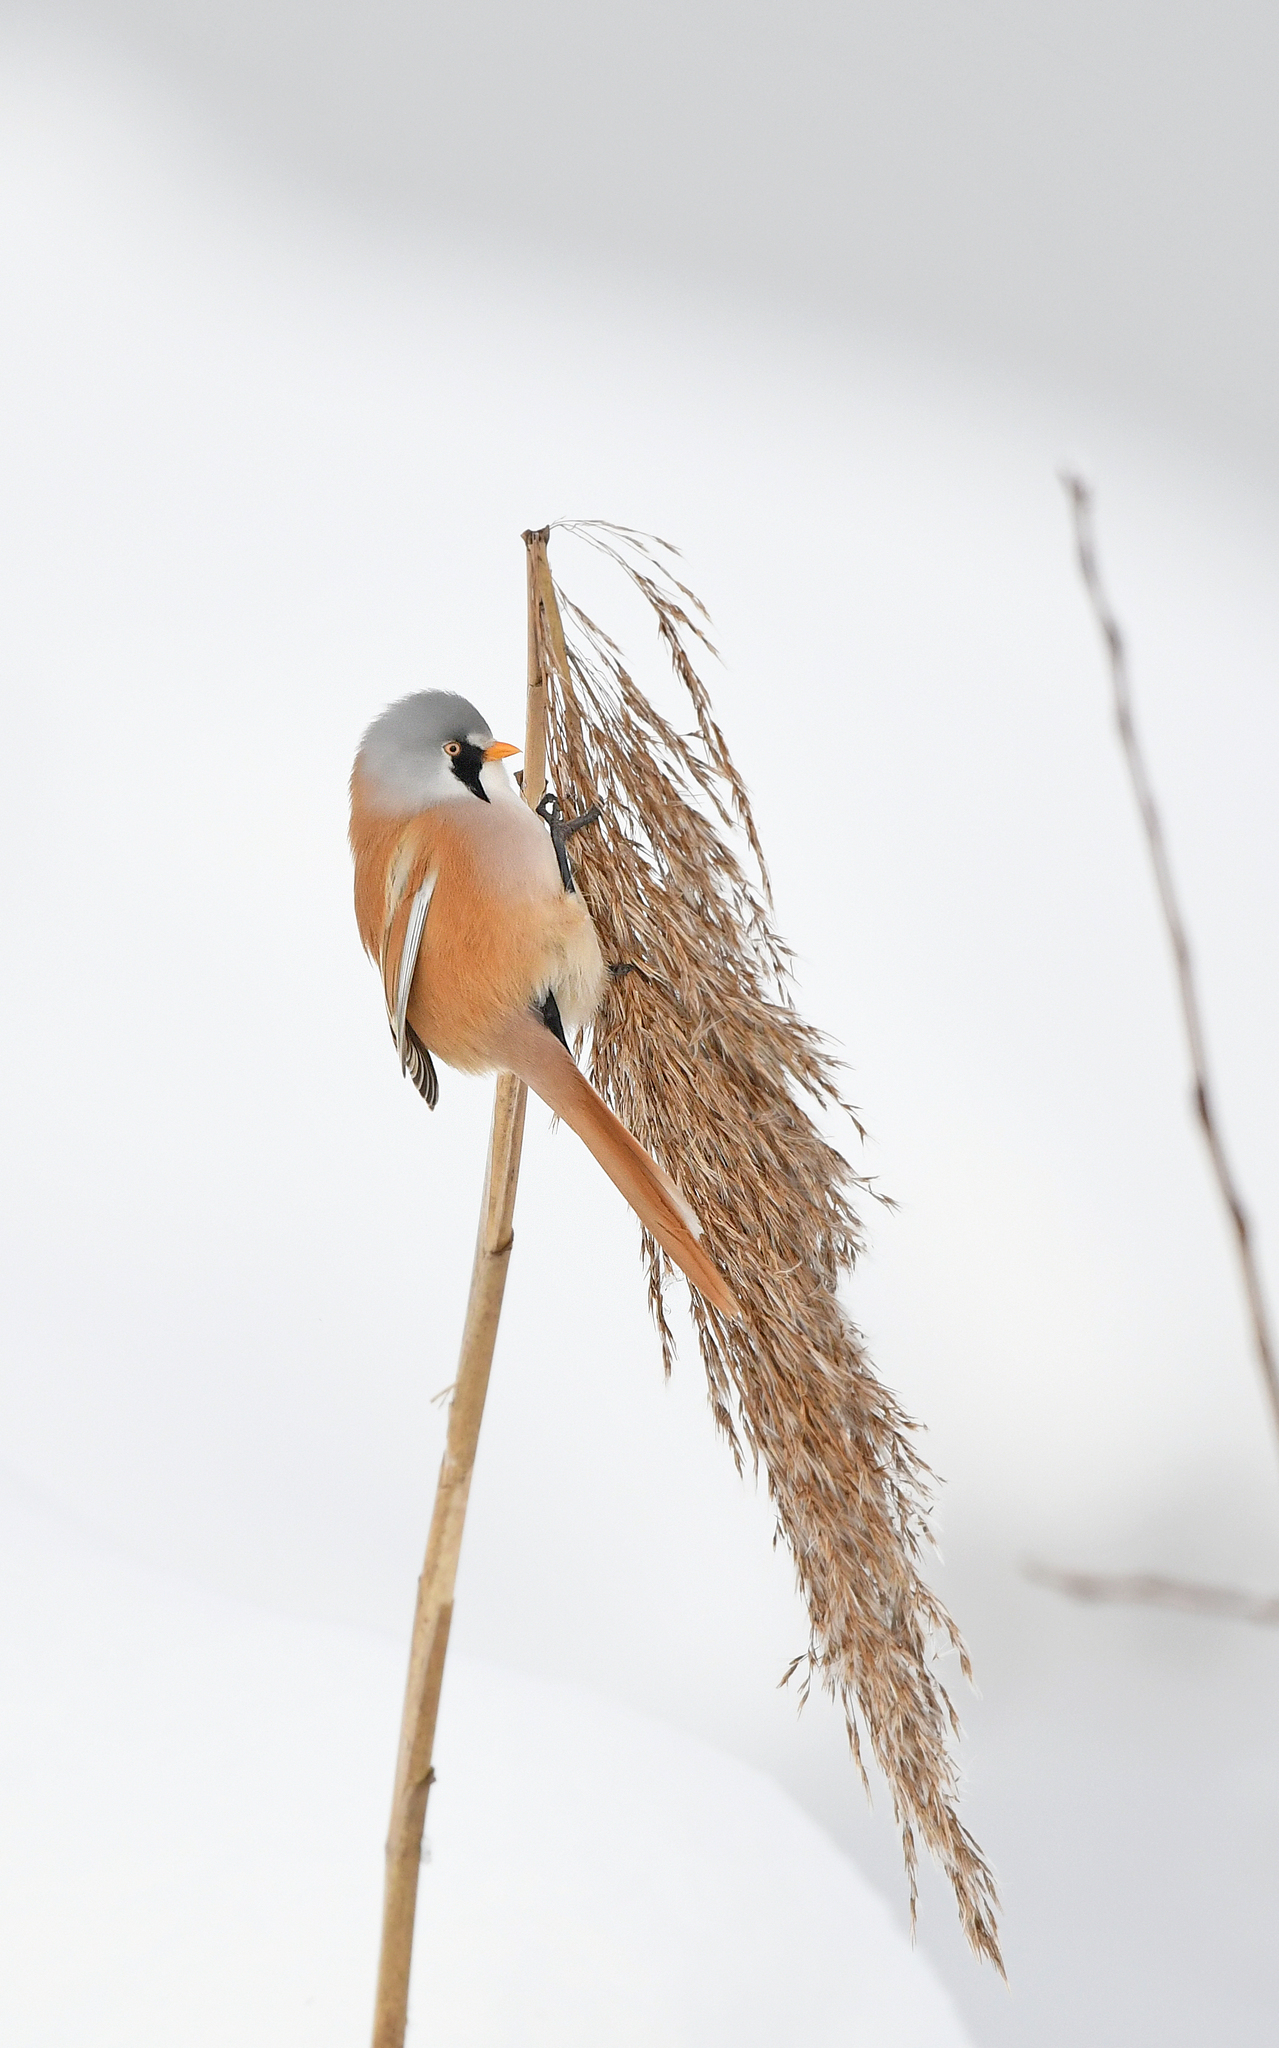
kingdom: Animalia
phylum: Chordata
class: Aves
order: Passeriformes
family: Panuridae
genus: Panurus
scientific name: Panurus biarmicus
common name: Bearded reedling
